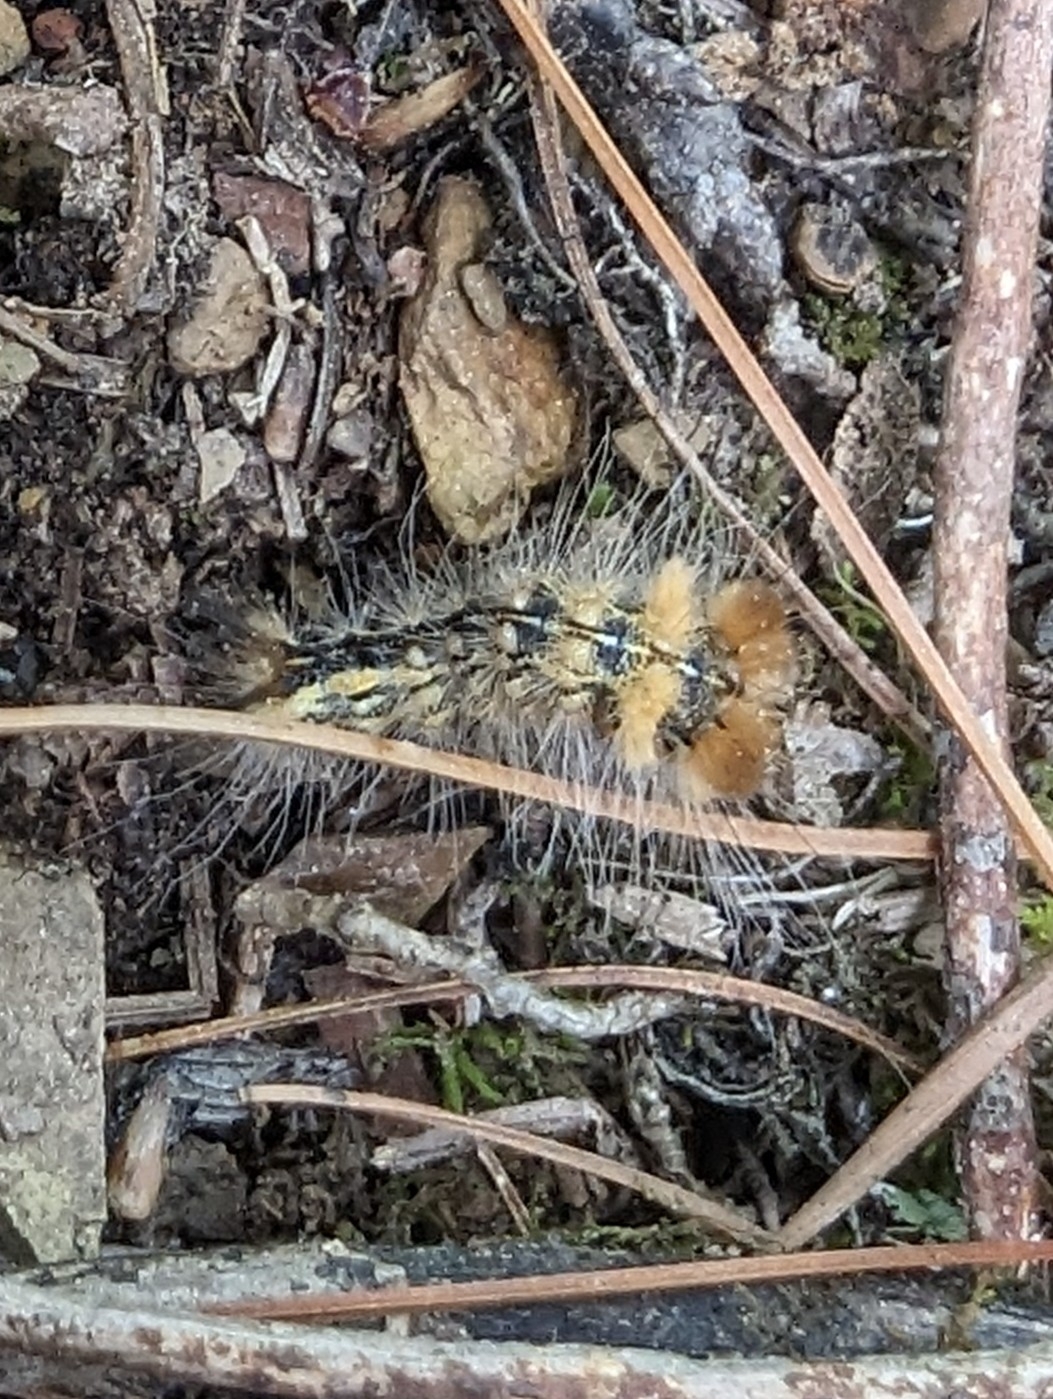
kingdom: Animalia
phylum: Arthropoda
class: Insecta
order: Lepidoptera
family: Noctuidae
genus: Acronicta
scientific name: Acronicta impleta
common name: Powdered dagger
